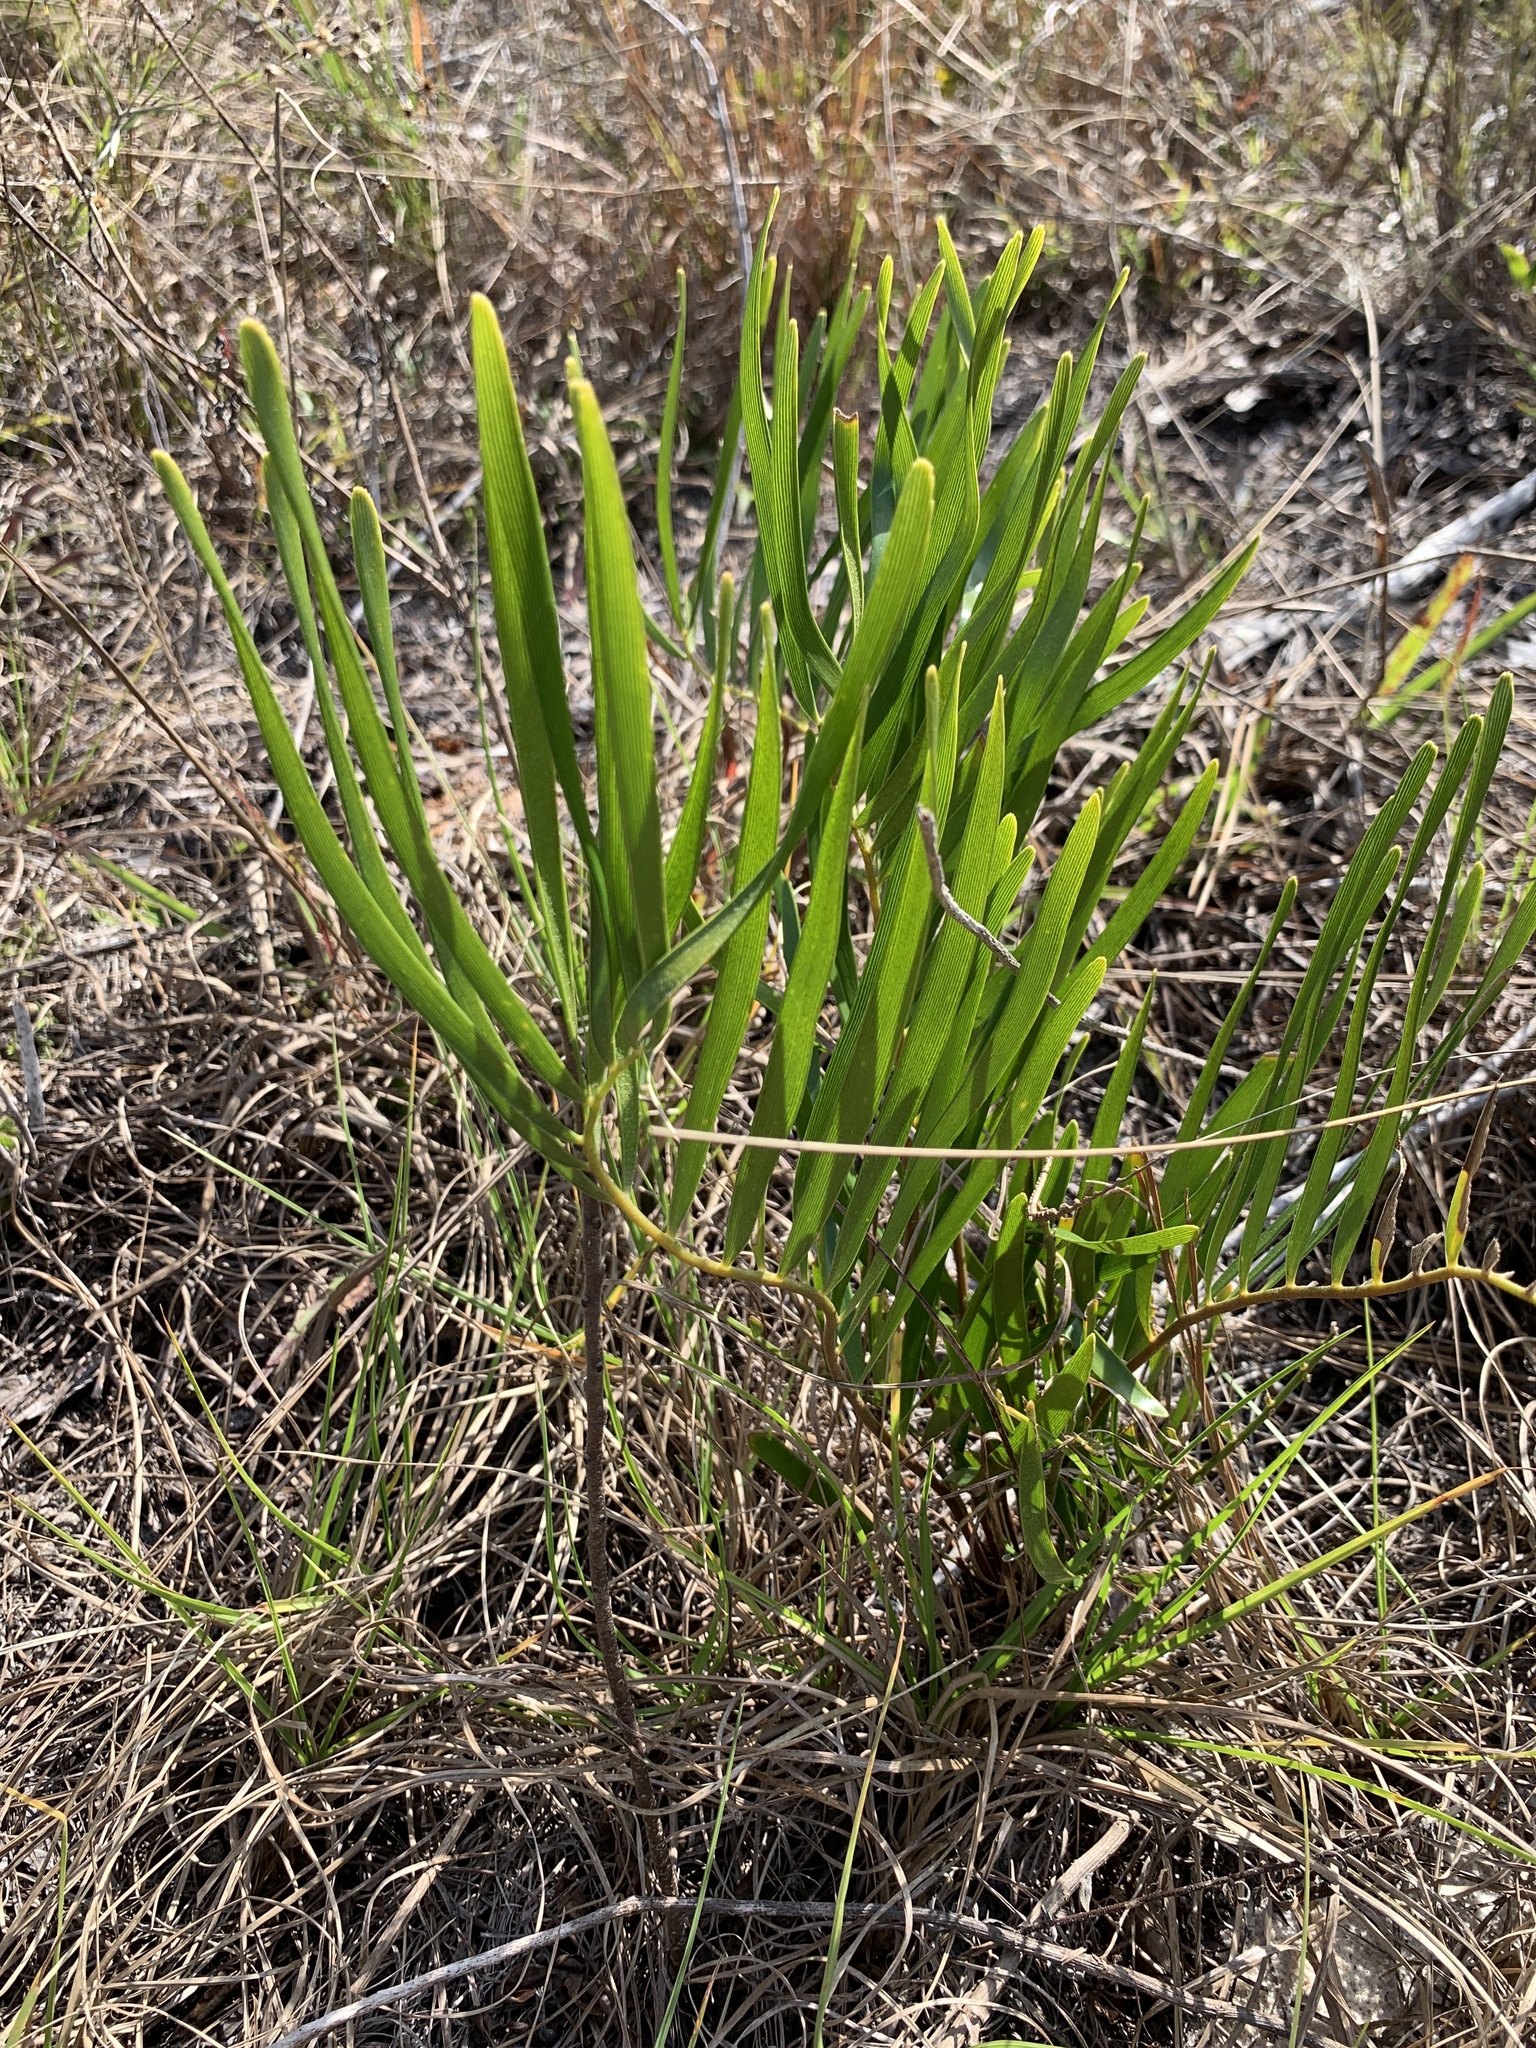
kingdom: Plantae
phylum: Tracheophyta
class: Cycadopsida
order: Cycadales
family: Zamiaceae
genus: Zamia
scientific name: Zamia integrifolia
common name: Florida arrowroot
